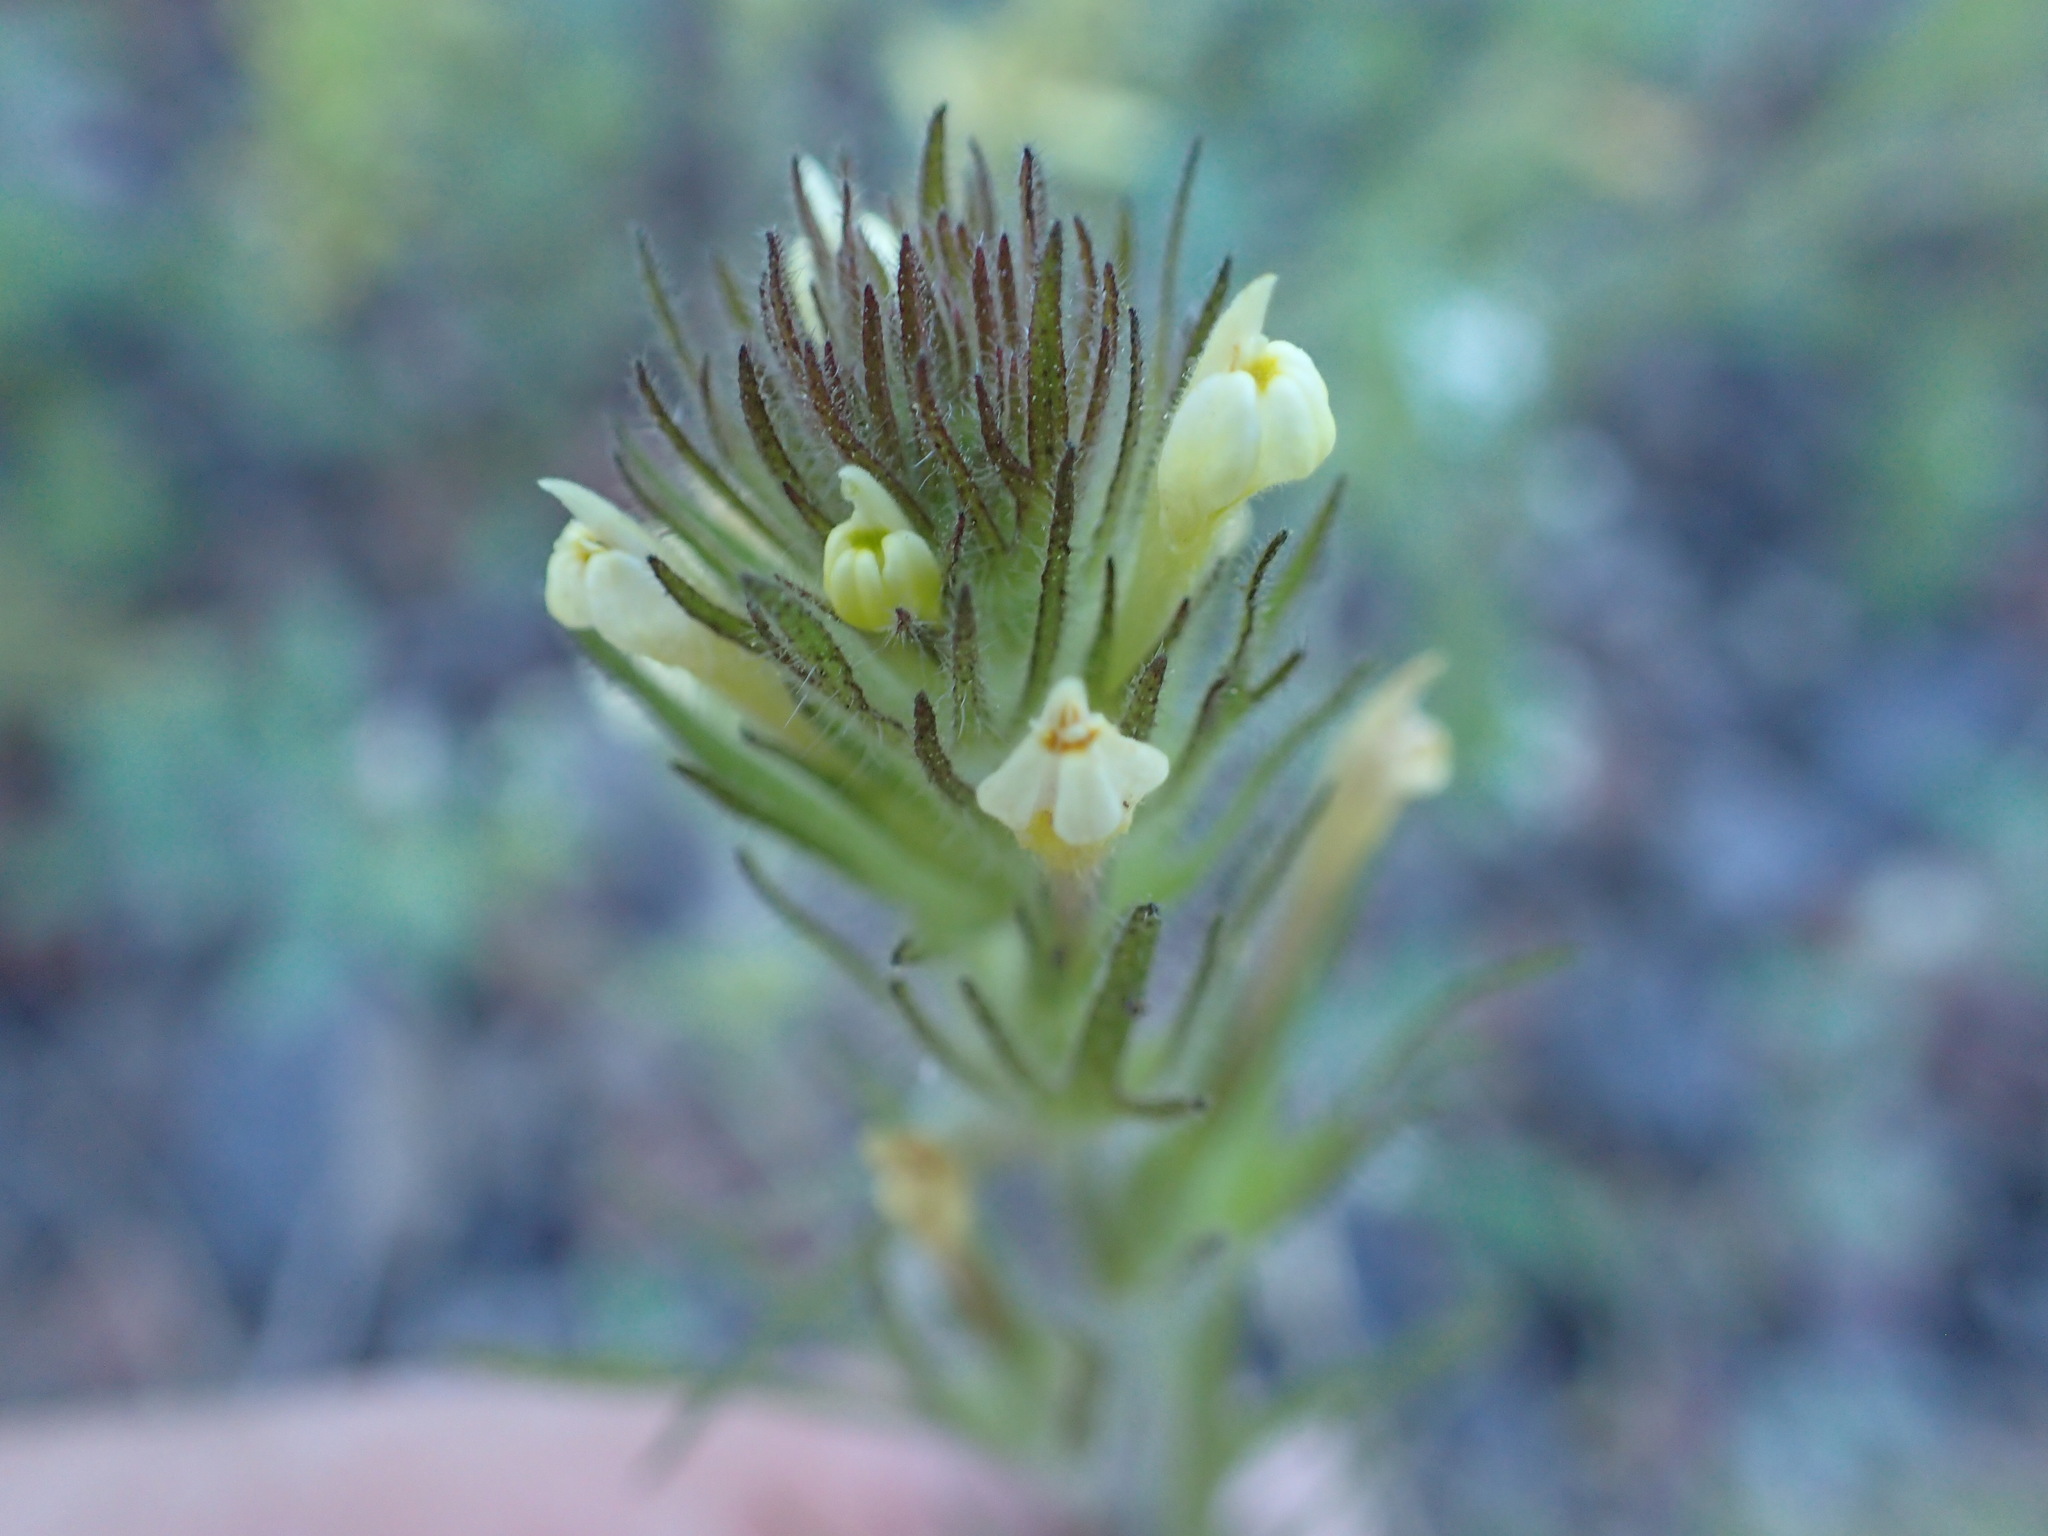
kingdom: Plantae
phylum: Tracheophyta
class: Magnoliopsida
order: Lamiales
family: Orobanchaceae
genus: Castilleja
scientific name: Castilleja tenuis
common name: Hairy indian paintbrush
